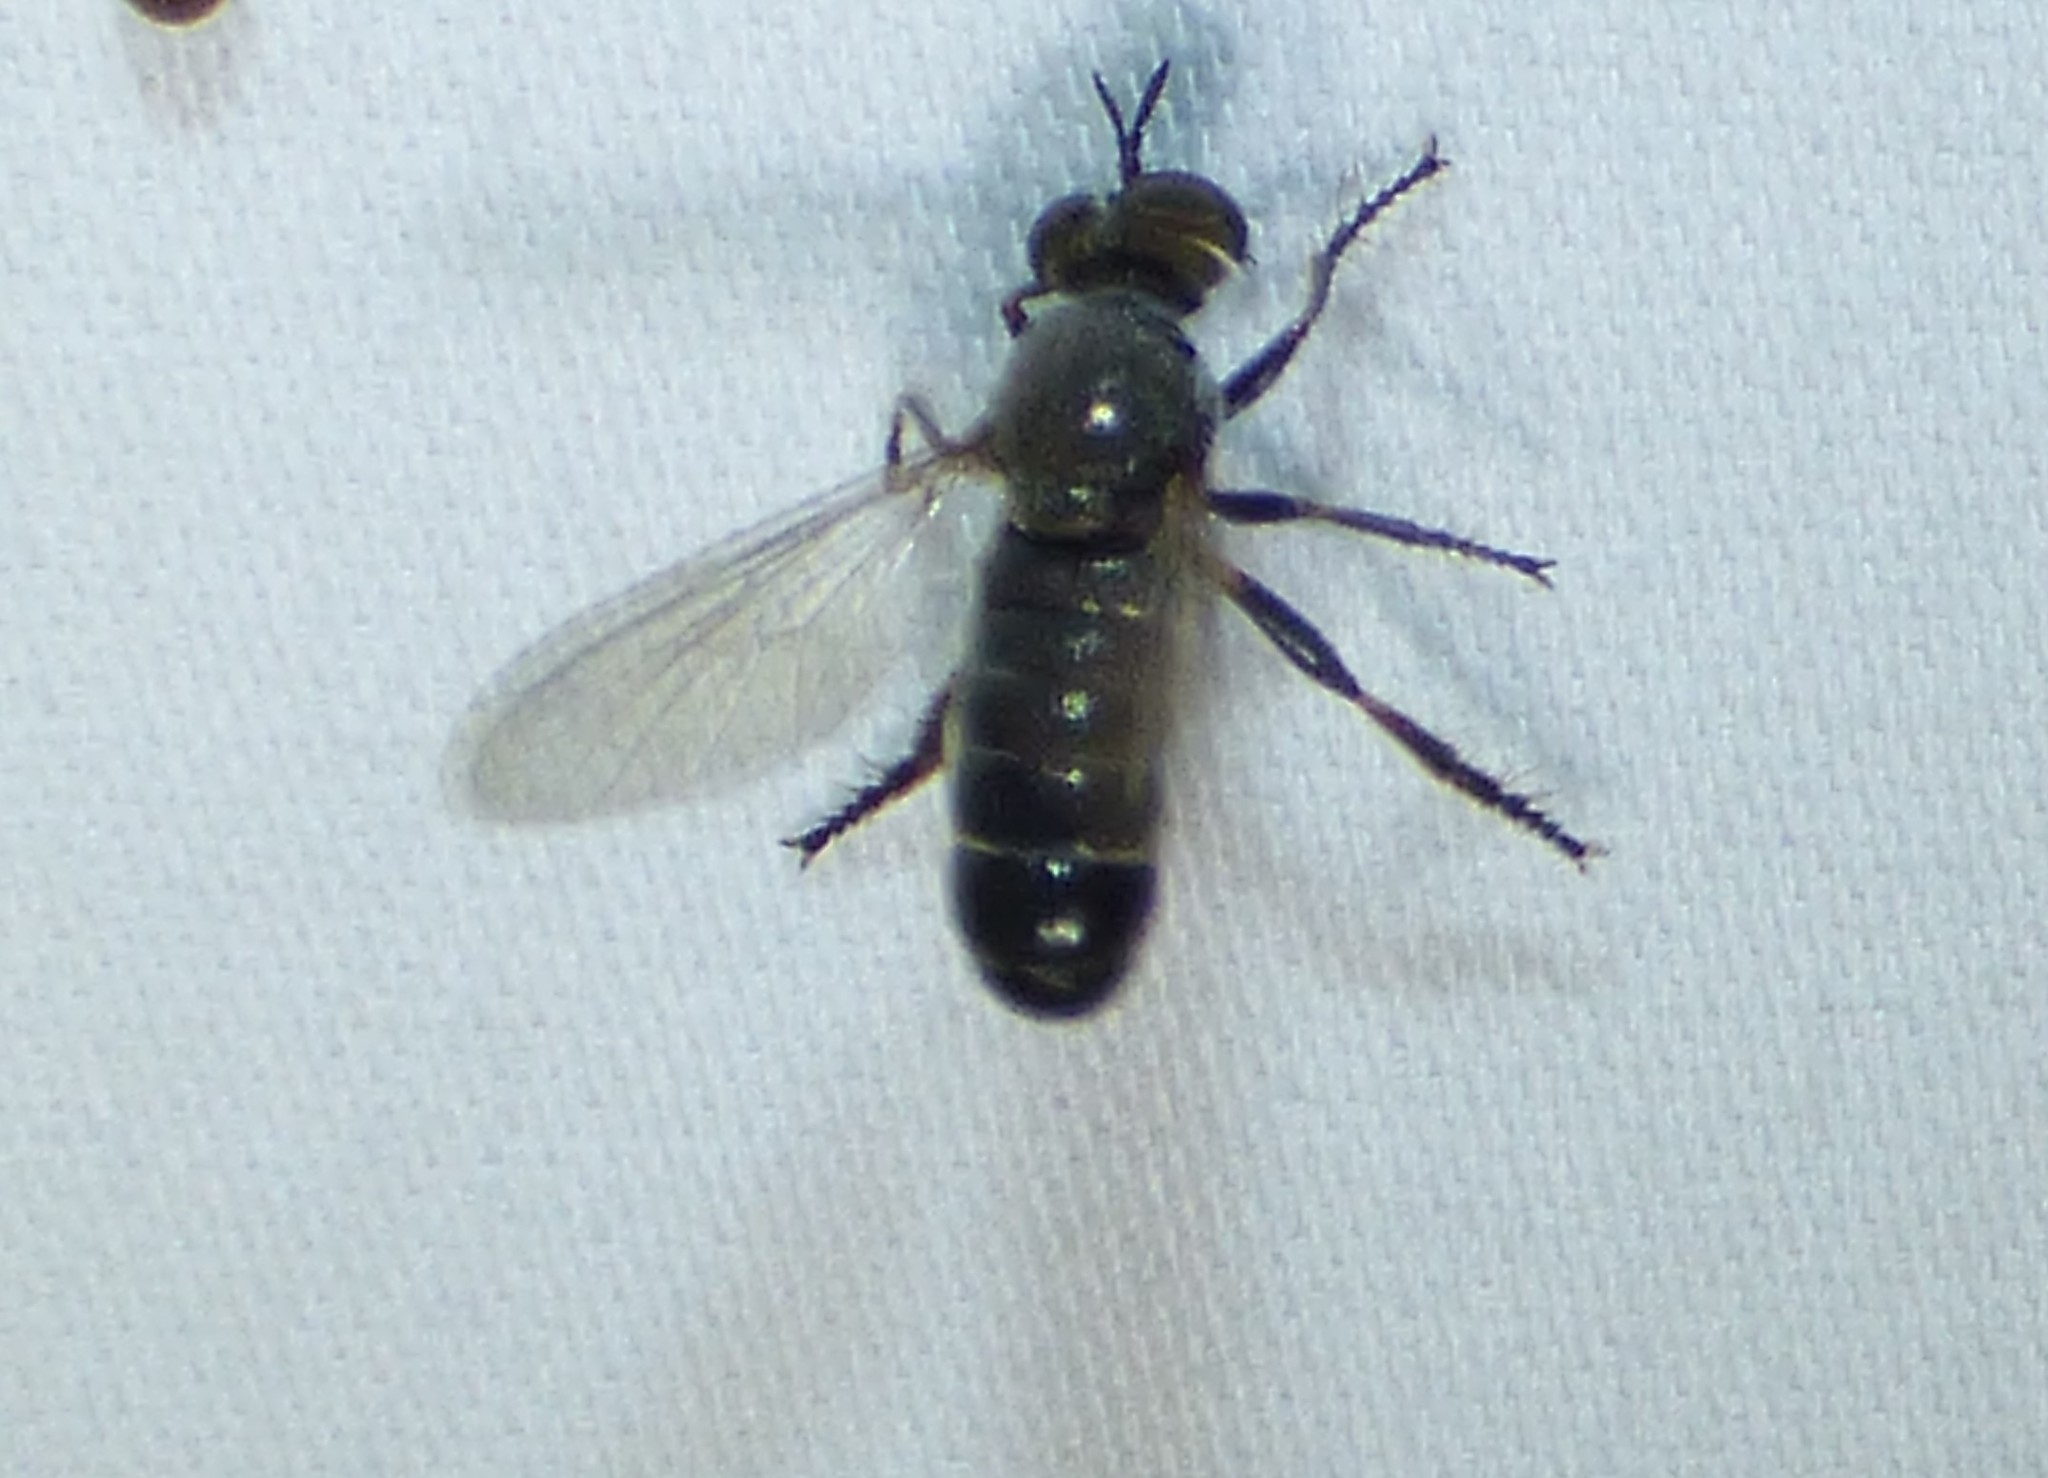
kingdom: Animalia
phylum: Arthropoda
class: Insecta
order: Diptera
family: Asilidae
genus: Atomosia
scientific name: Atomosia puella
